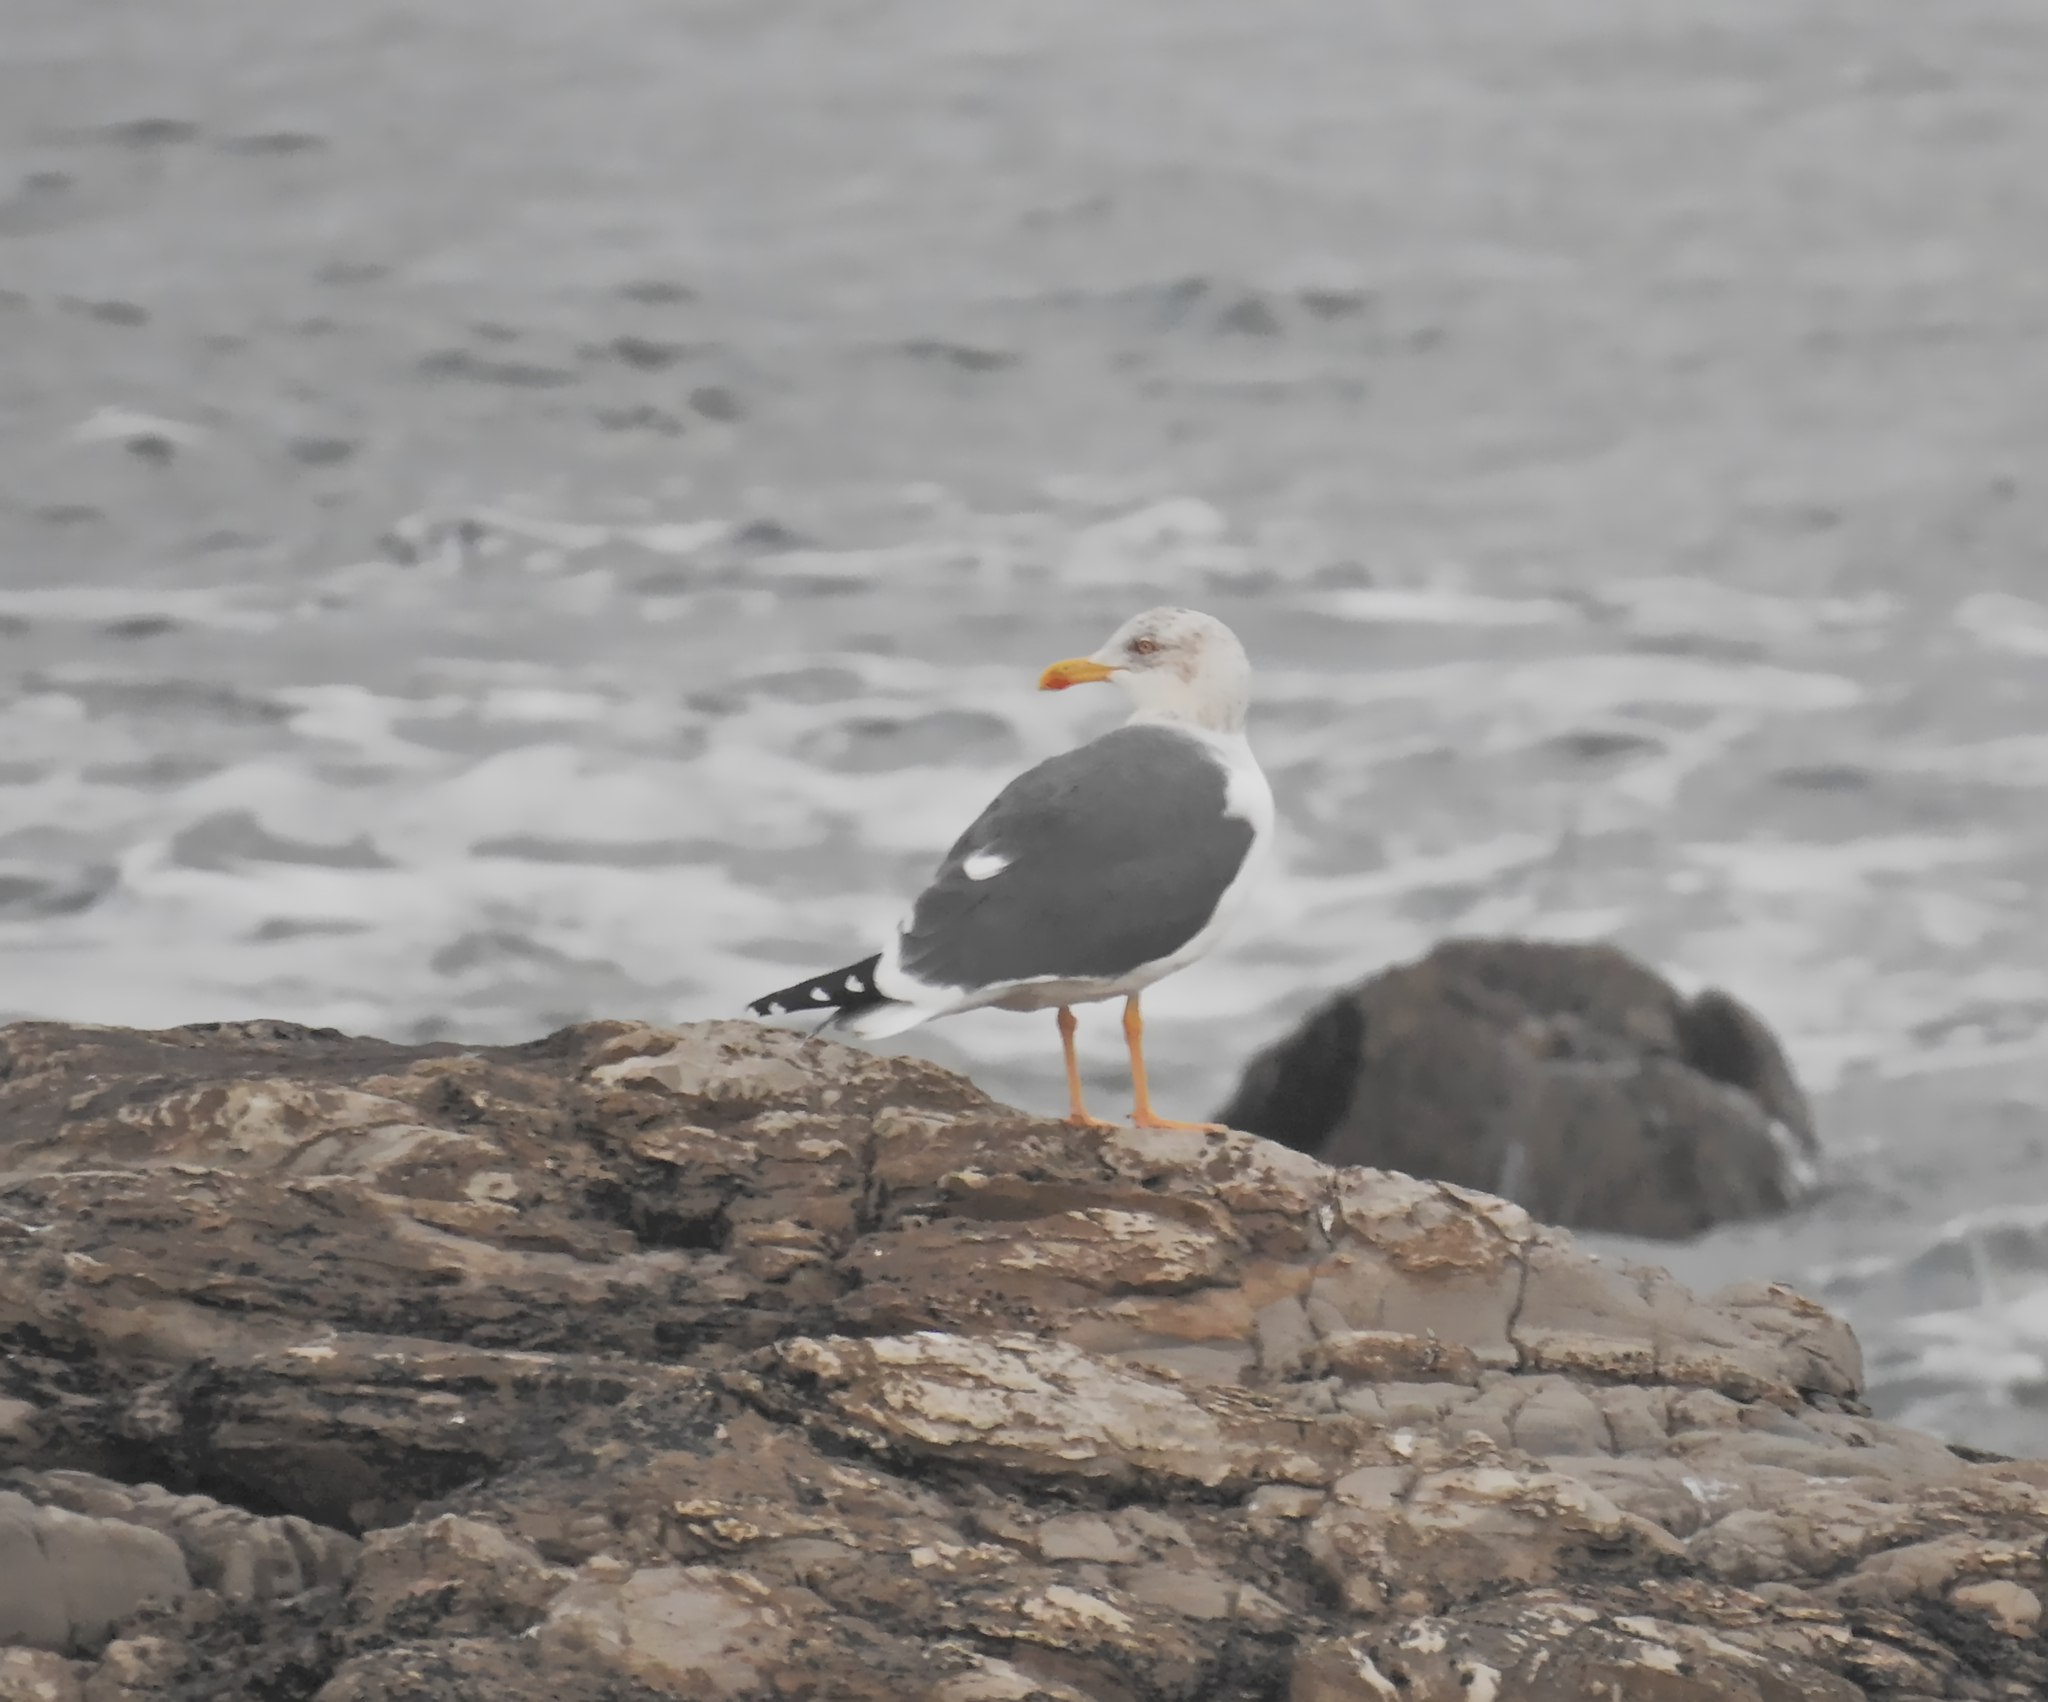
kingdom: Animalia
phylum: Chordata
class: Aves
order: Charadriiformes
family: Laridae
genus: Larus
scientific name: Larus fuscus
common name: Lesser black-backed gull
